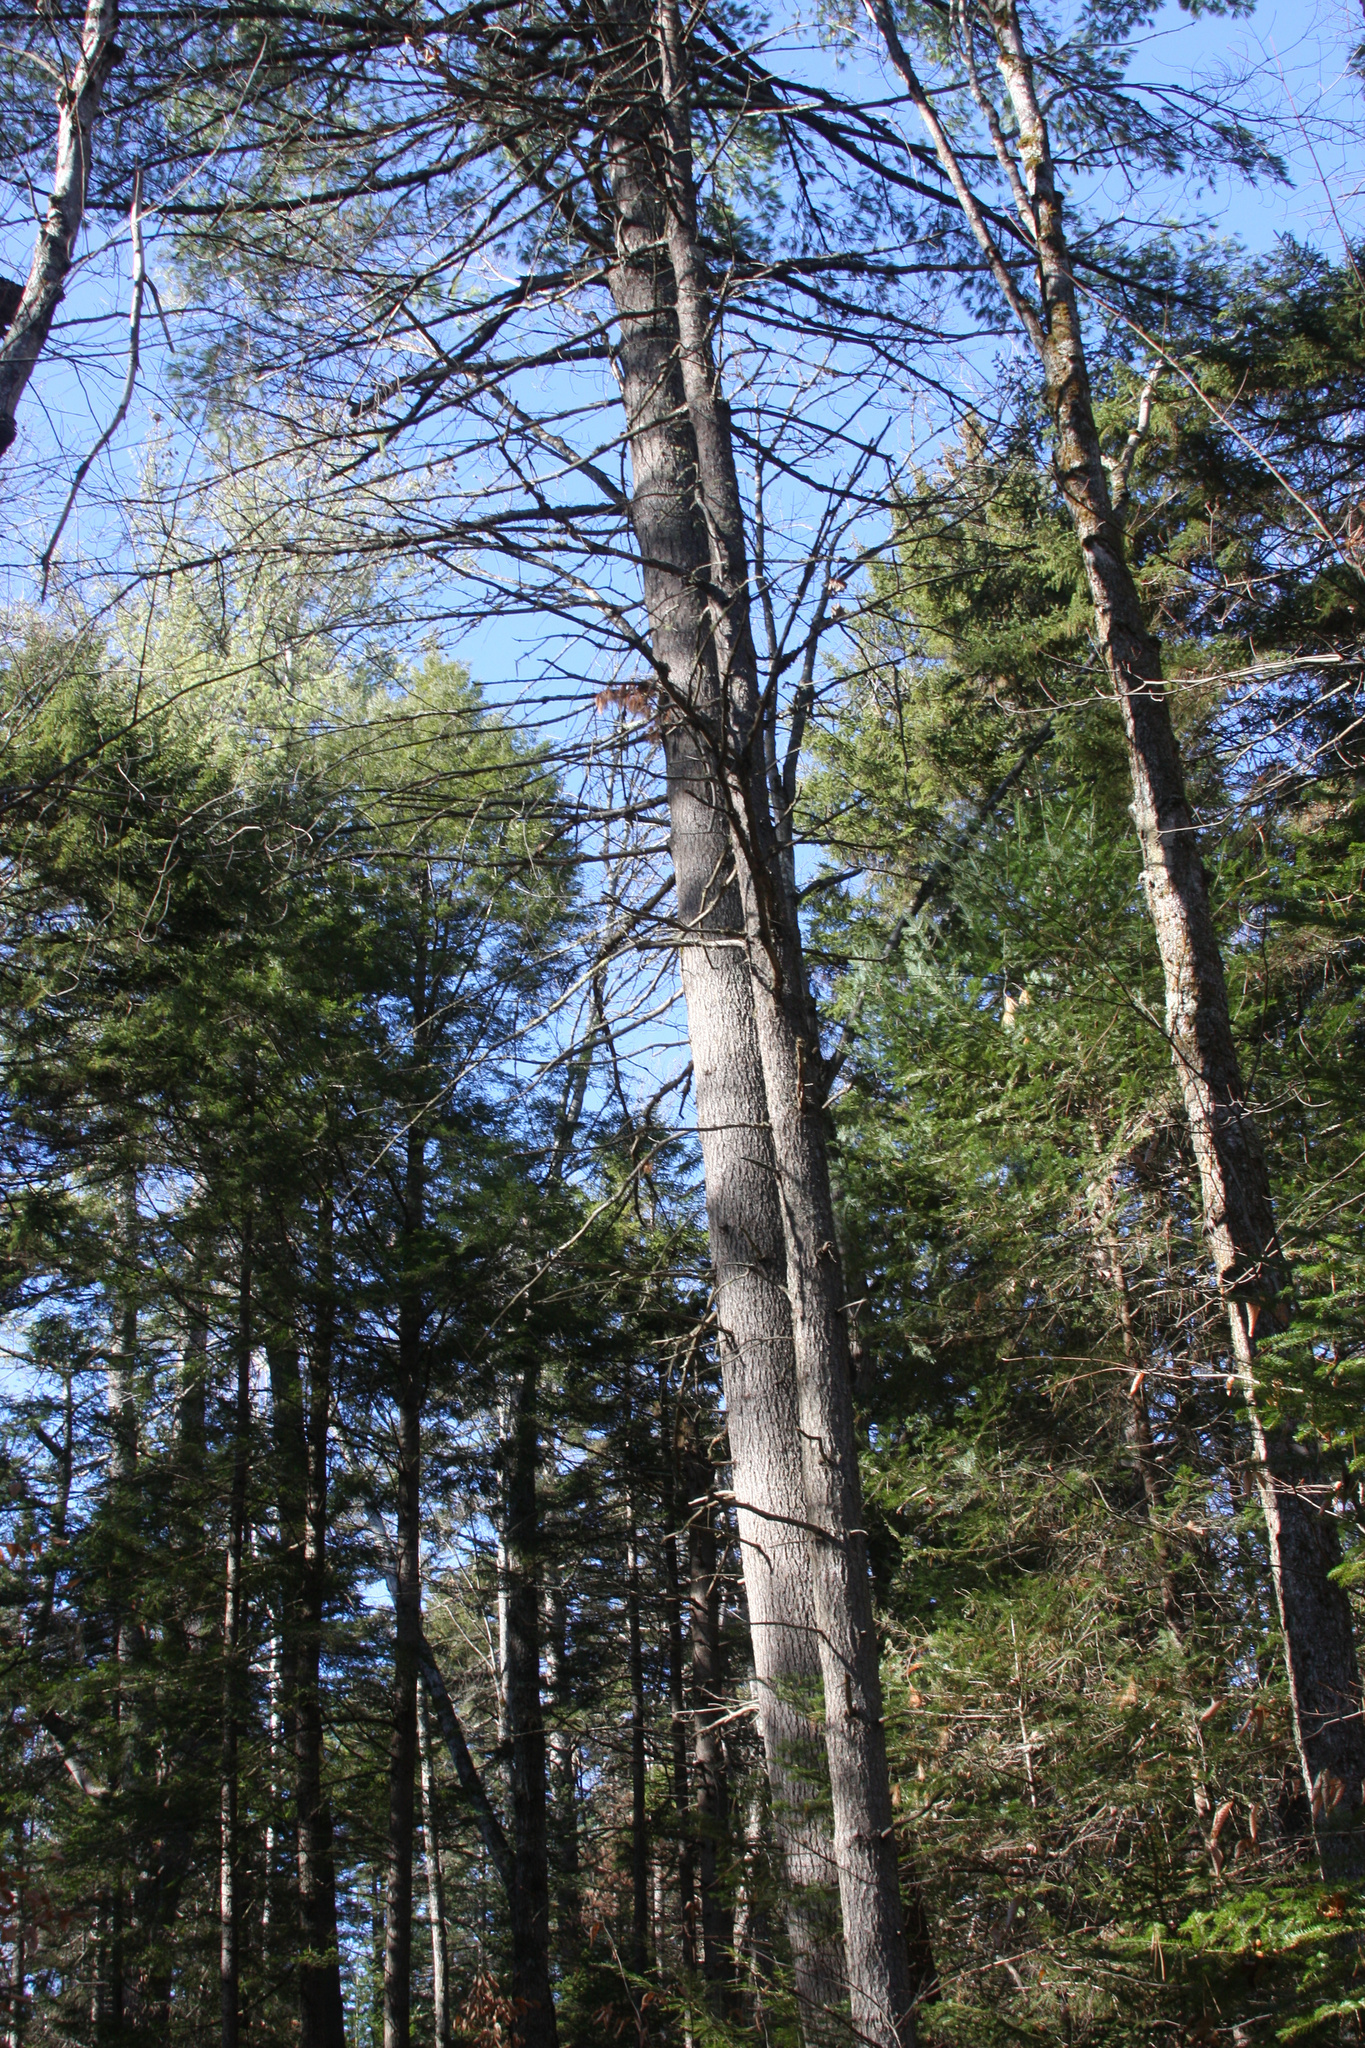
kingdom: Plantae
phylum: Tracheophyta
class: Pinopsida
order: Pinales
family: Pinaceae
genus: Pinus
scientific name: Pinus strobus
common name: Weymouth pine
